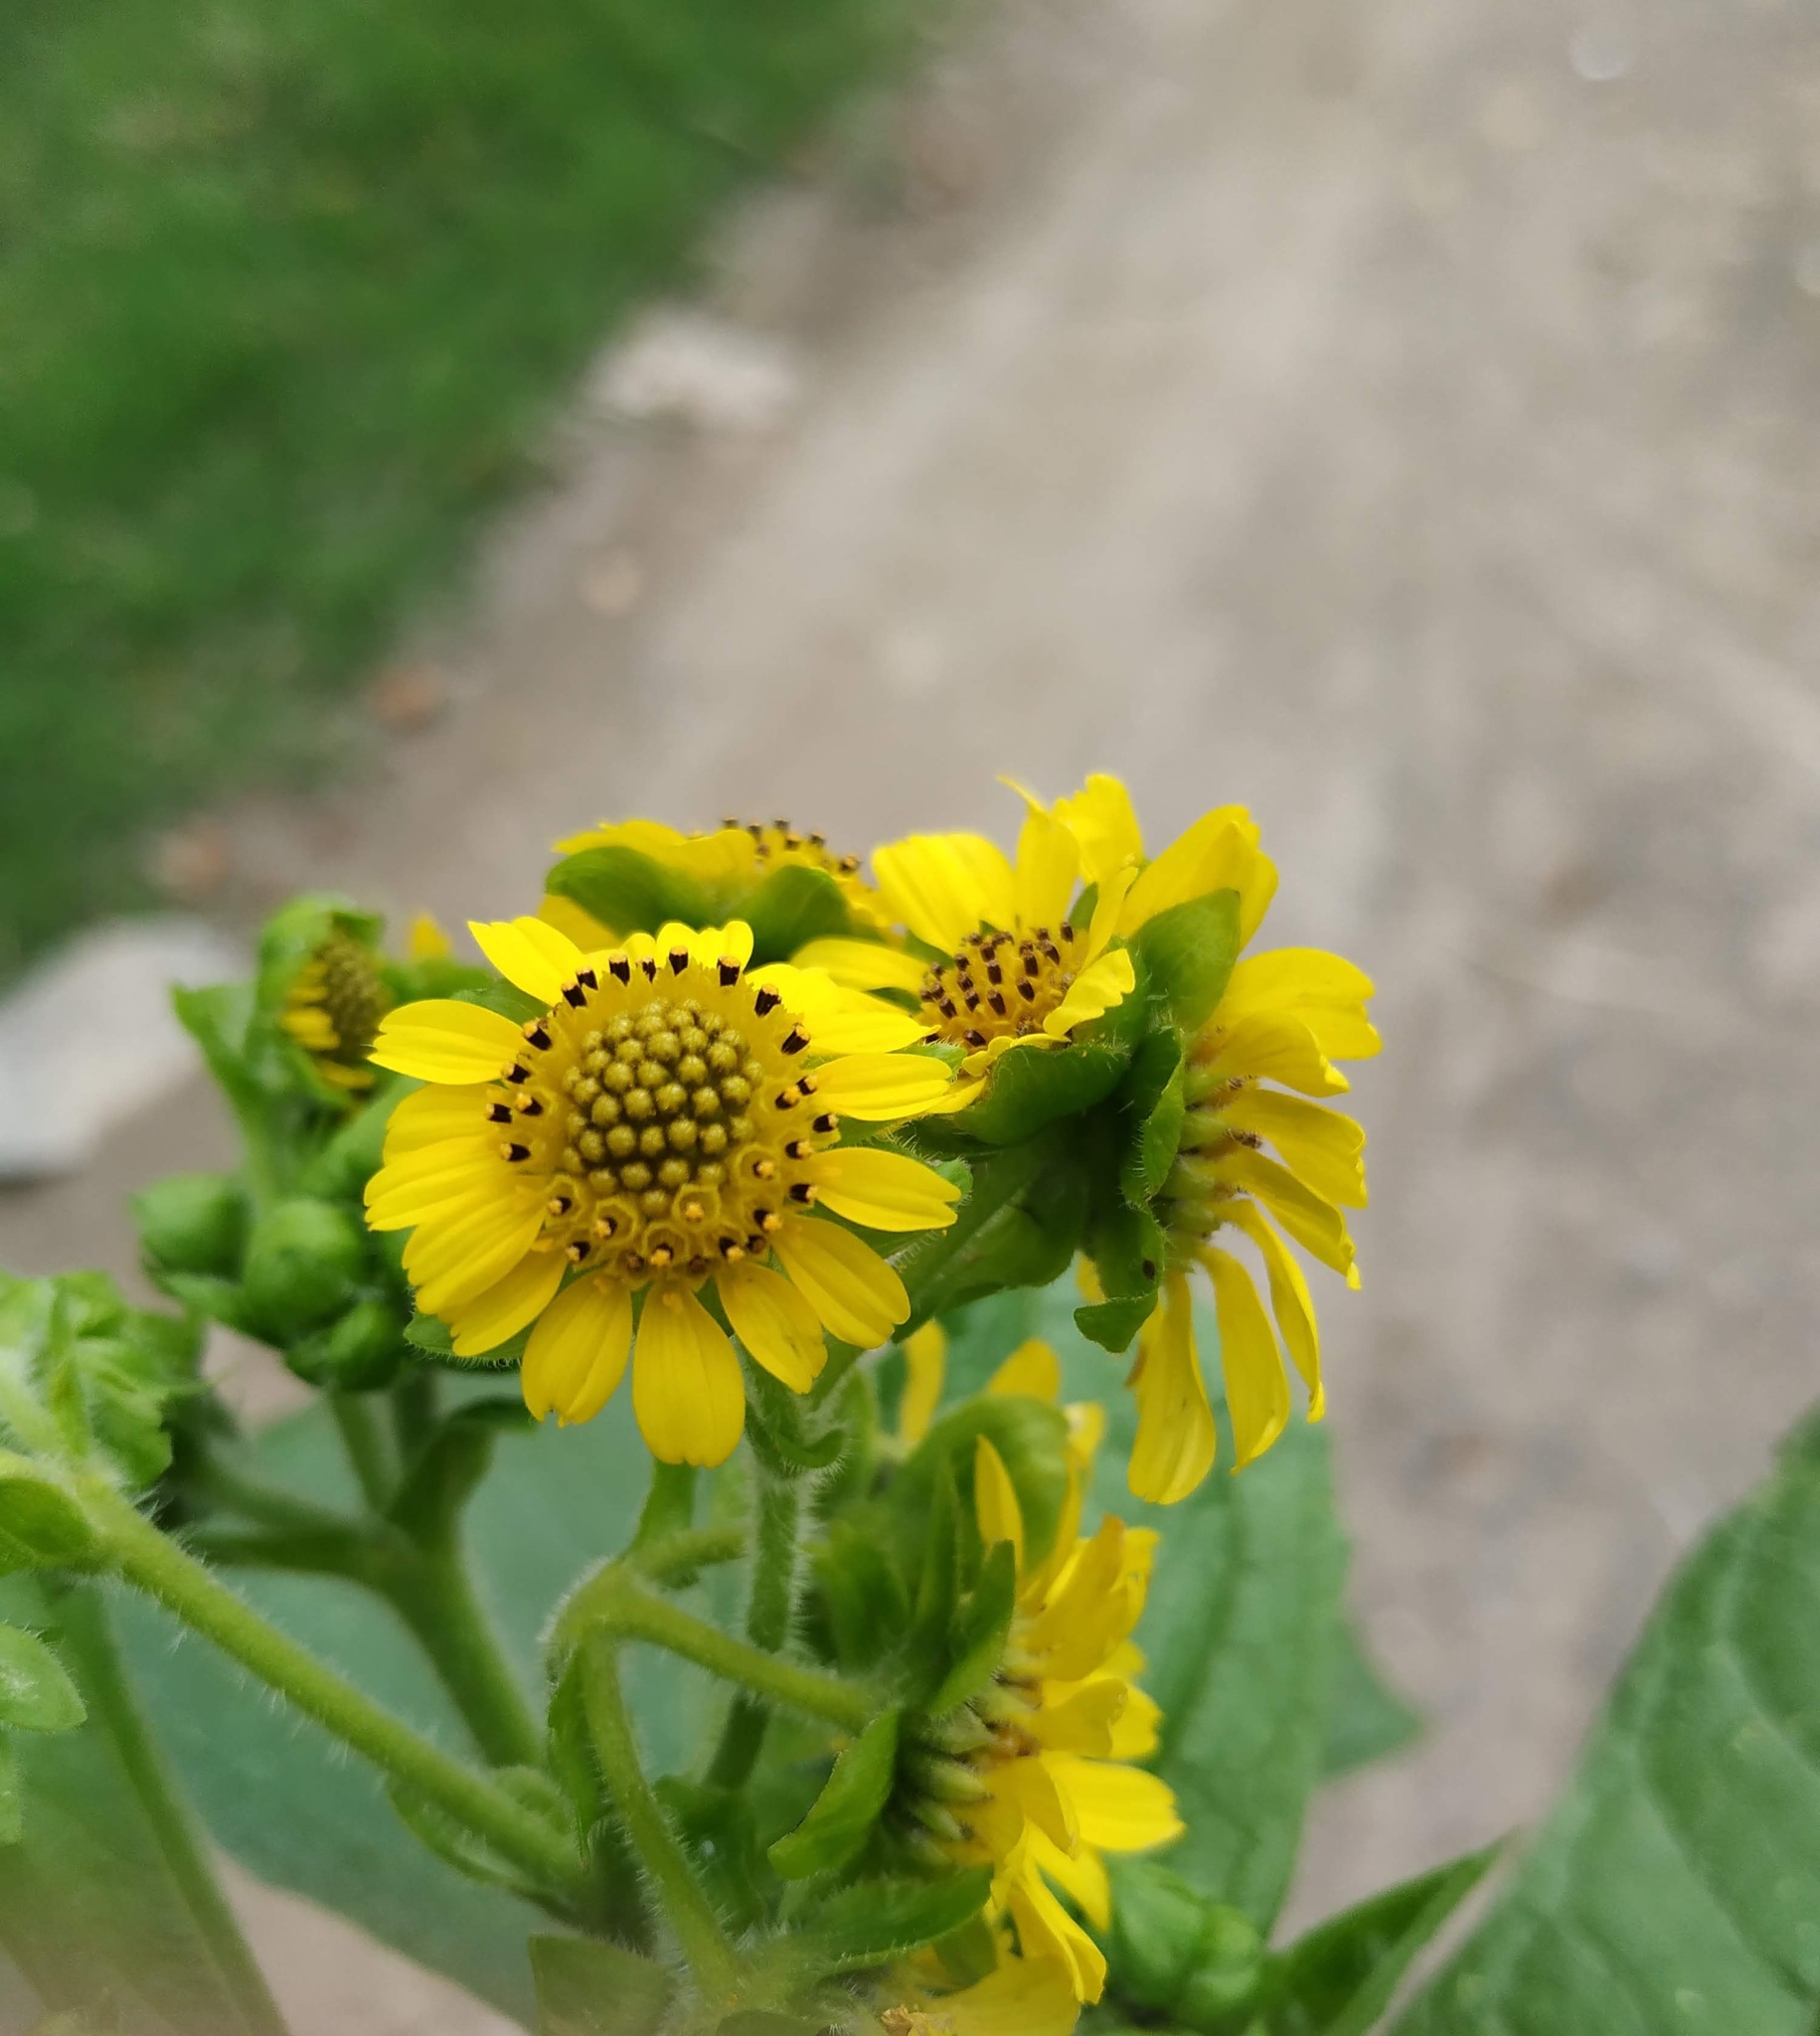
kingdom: Plantae
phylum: Tracheophyta
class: Magnoliopsida
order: Asterales
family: Asteraceae
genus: Smallanthus
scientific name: Smallanthus pyramidalis
